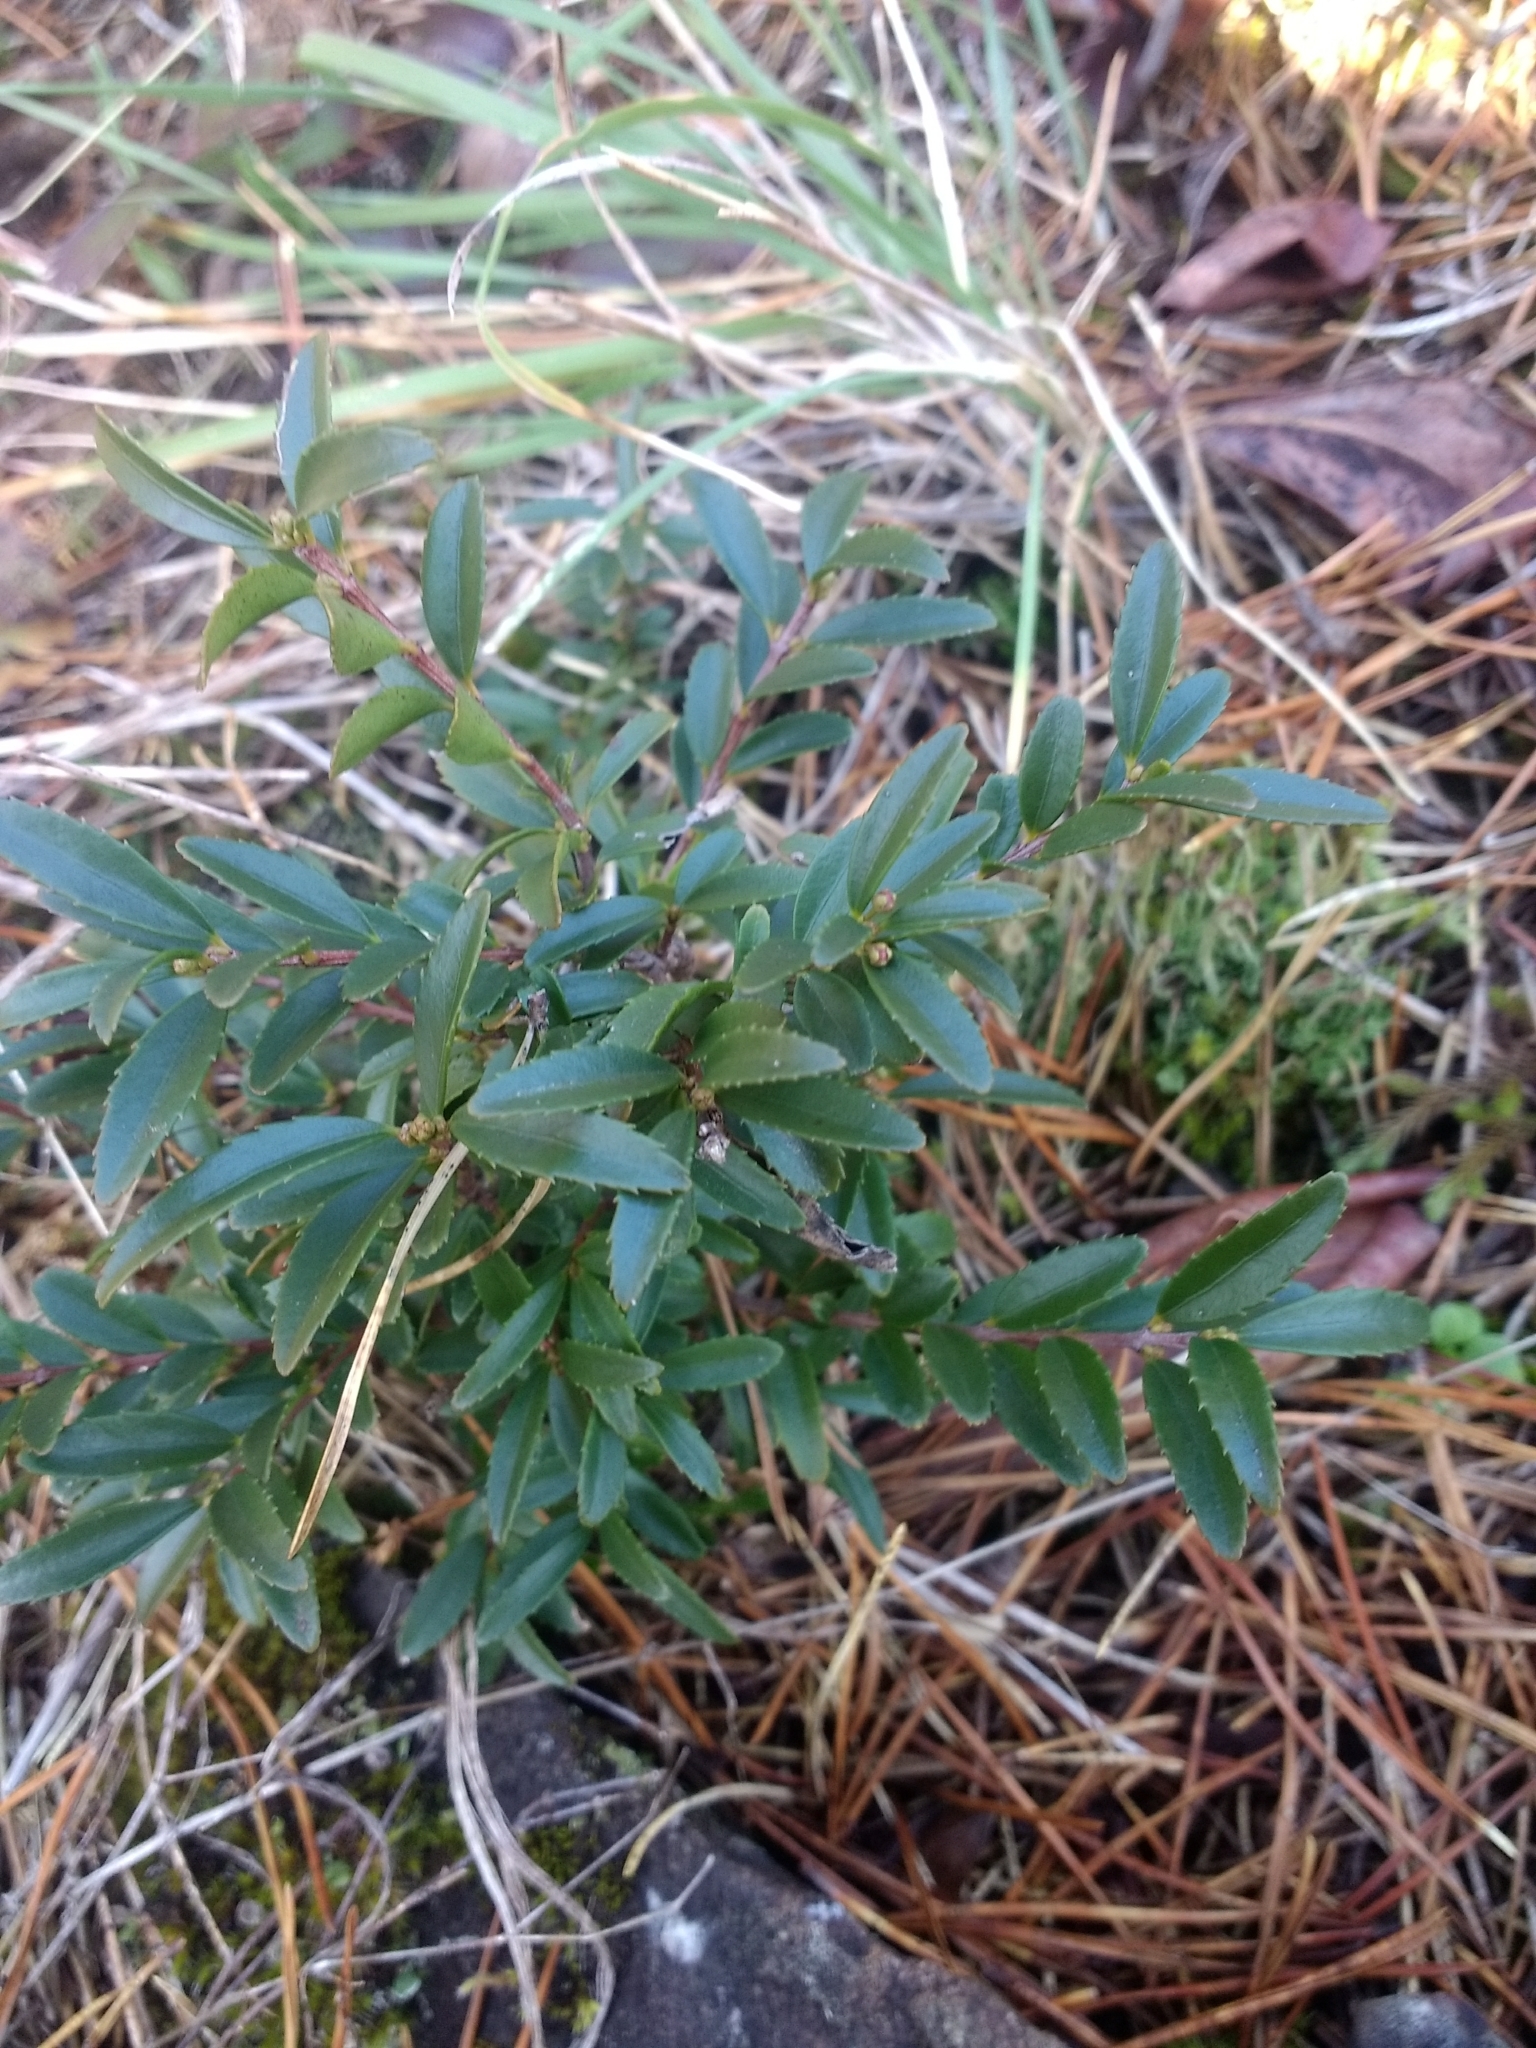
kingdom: Plantae
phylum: Tracheophyta
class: Magnoliopsida
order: Celastrales
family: Celastraceae
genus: Paxistima
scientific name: Paxistima myrsinites
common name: Mountain-lover
